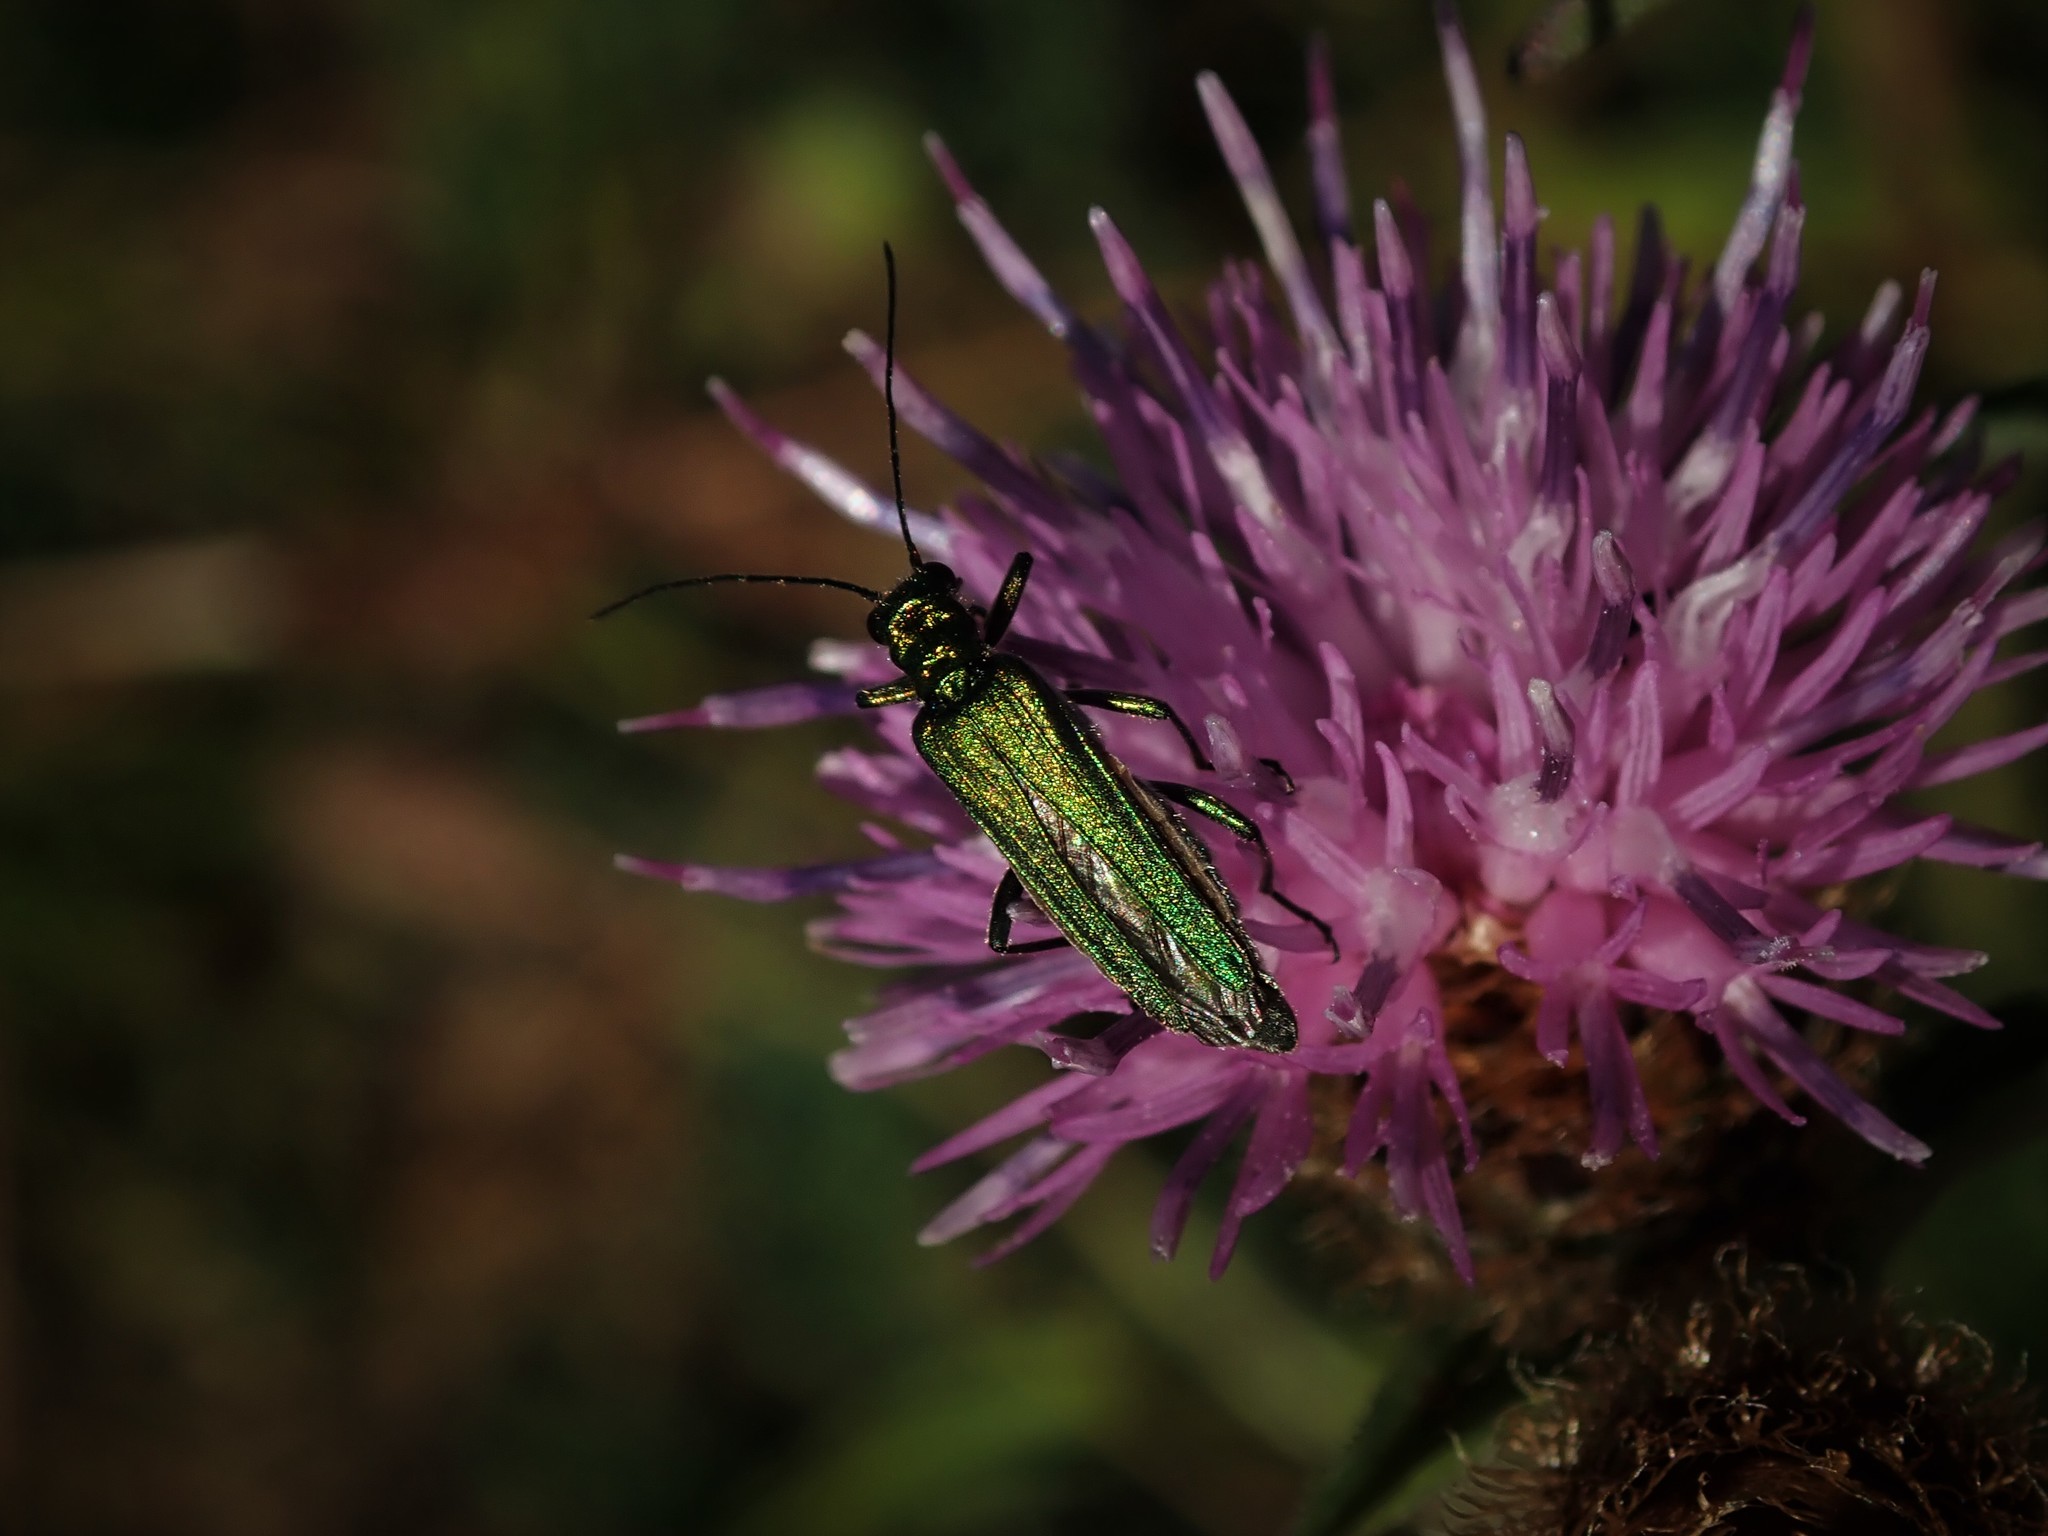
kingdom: Animalia
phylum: Arthropoda
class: Insecta
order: Coleoptera
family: Oedemeridae
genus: Oedemera
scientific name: Oedemera nobilis
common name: Swollen-thighed beetle
